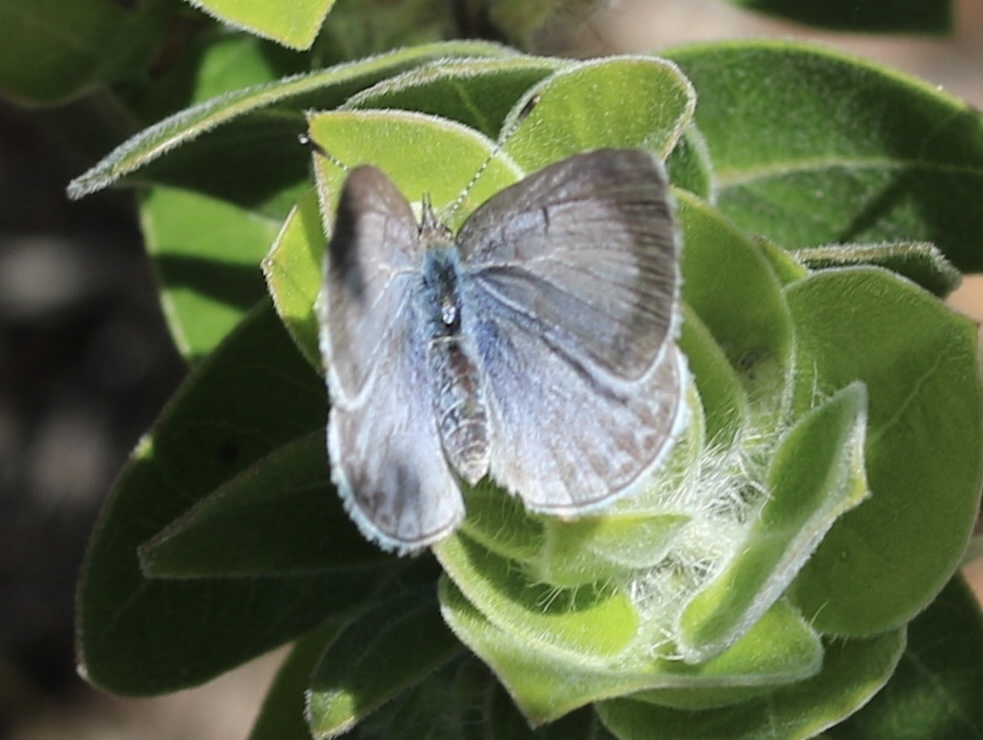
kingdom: Animalia
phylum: Arthropoda
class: Insecta
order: Lepidoptera
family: Lycaenidae
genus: Celastrina
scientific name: Celastrina ladon
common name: Spring azure
